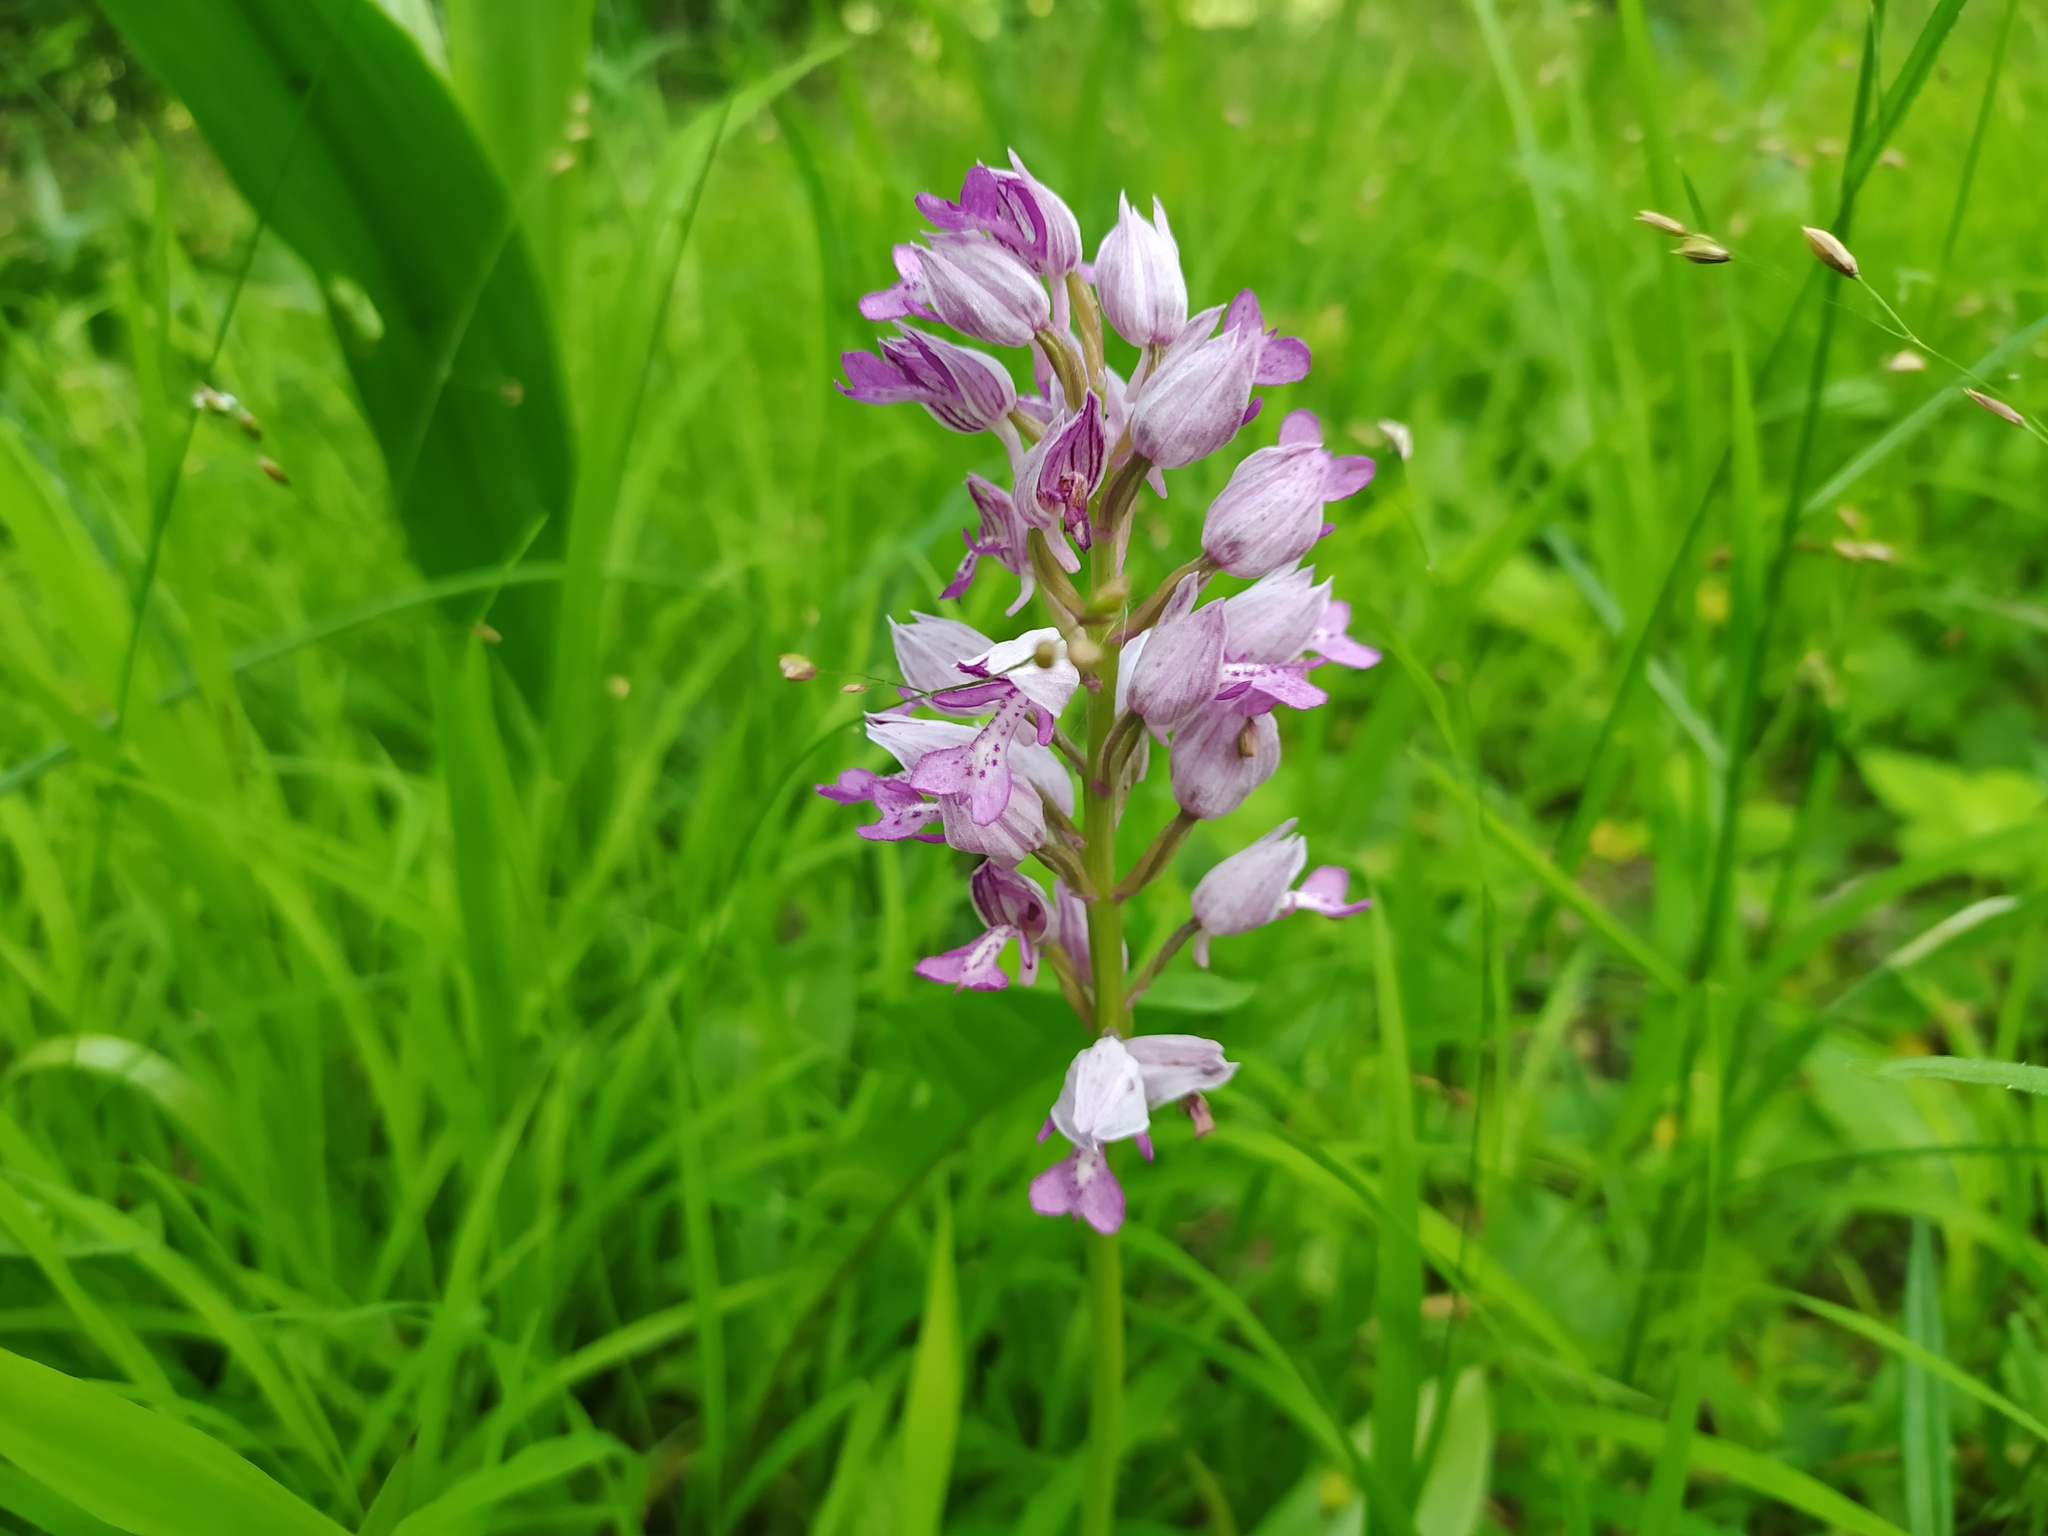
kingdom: Plantae
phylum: Tracheophyta
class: Liliopsida
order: Asparagales
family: Orchidaceae
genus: Orchis
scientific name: Orchis militaris
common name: Military orchid
